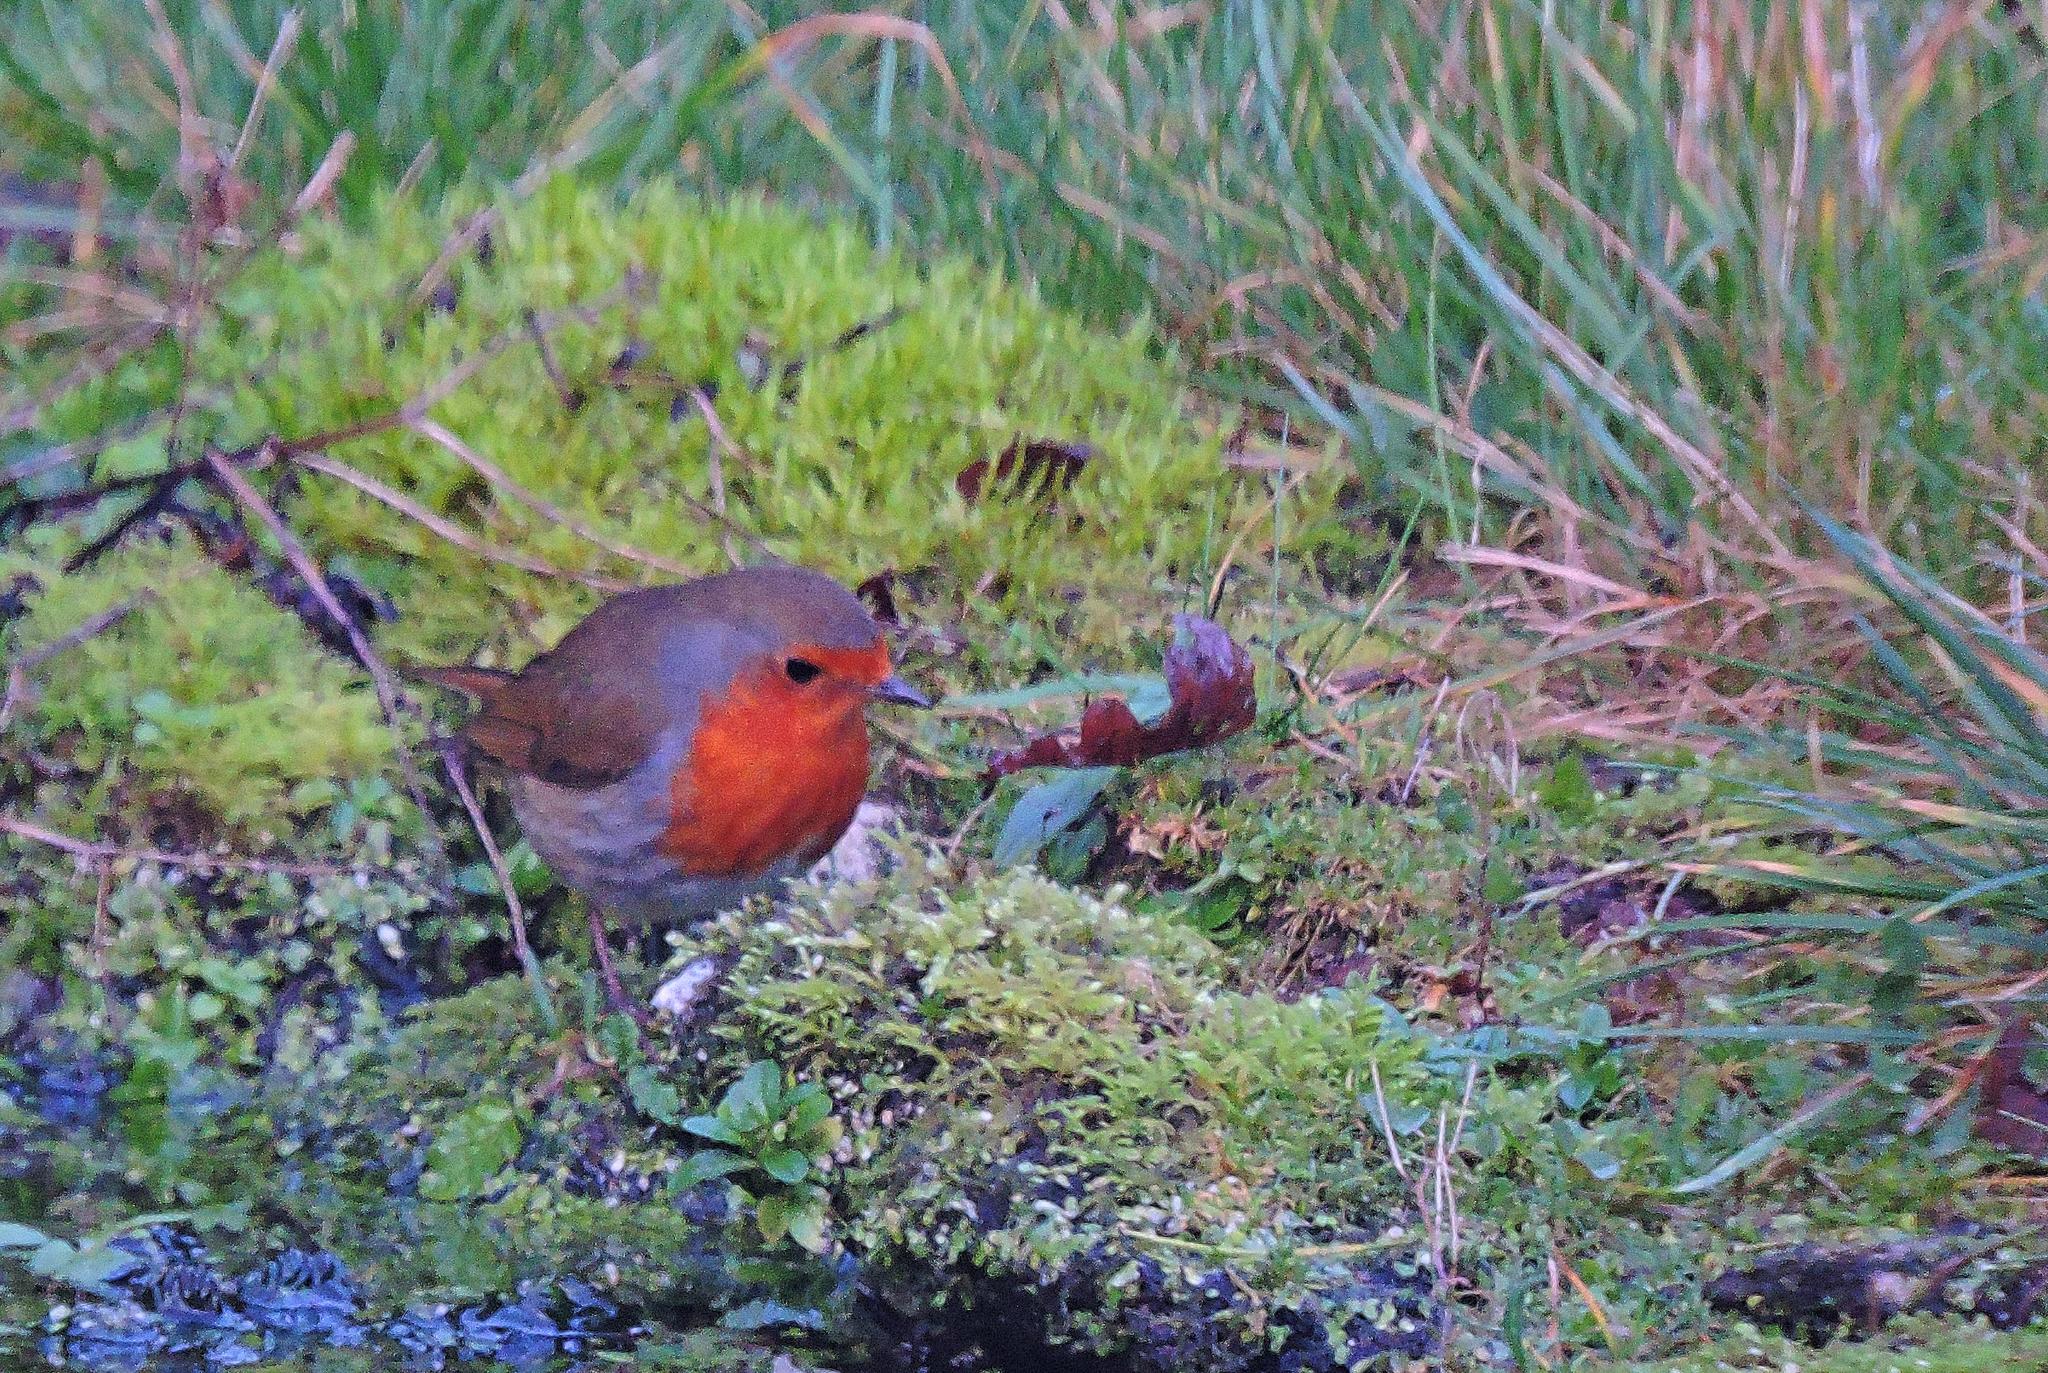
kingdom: Animalia
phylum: Chordata
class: Aves
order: Passeriformes
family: Muscicapidae
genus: Erithacus
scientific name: Erithacus rubecula
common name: European robin
